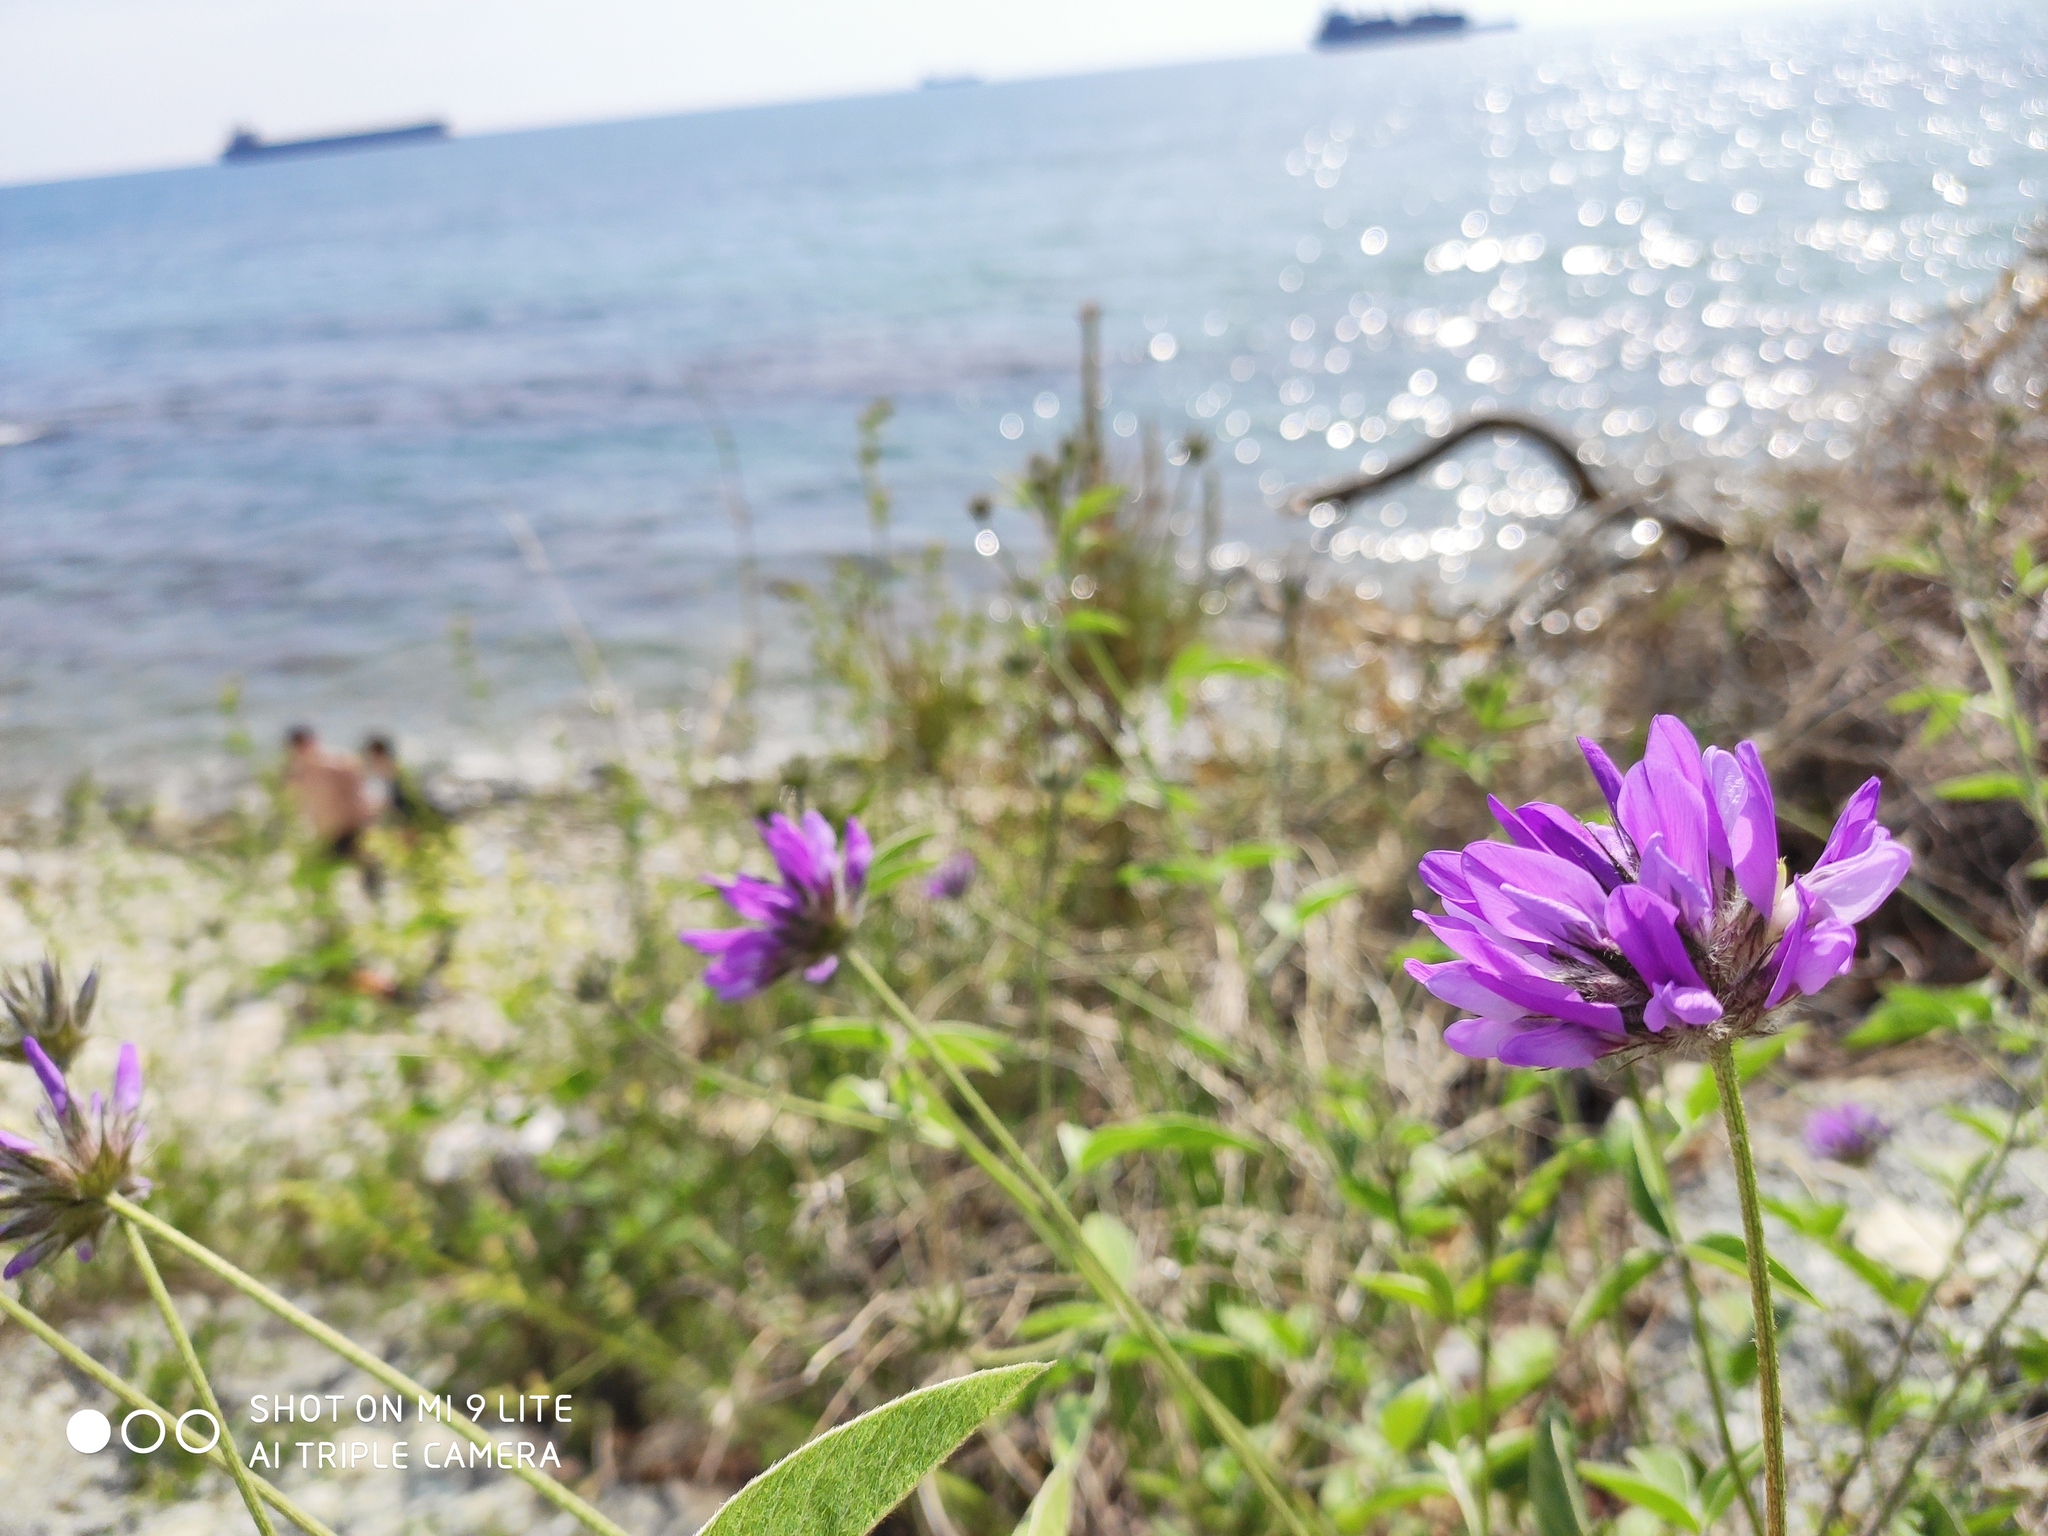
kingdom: Plantae
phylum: Tracheophyta
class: Magnoliopsida
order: Fabales
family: Fabaceae
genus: Bituminaria
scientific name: Bituminaria bituminosa
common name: Arabian pea
